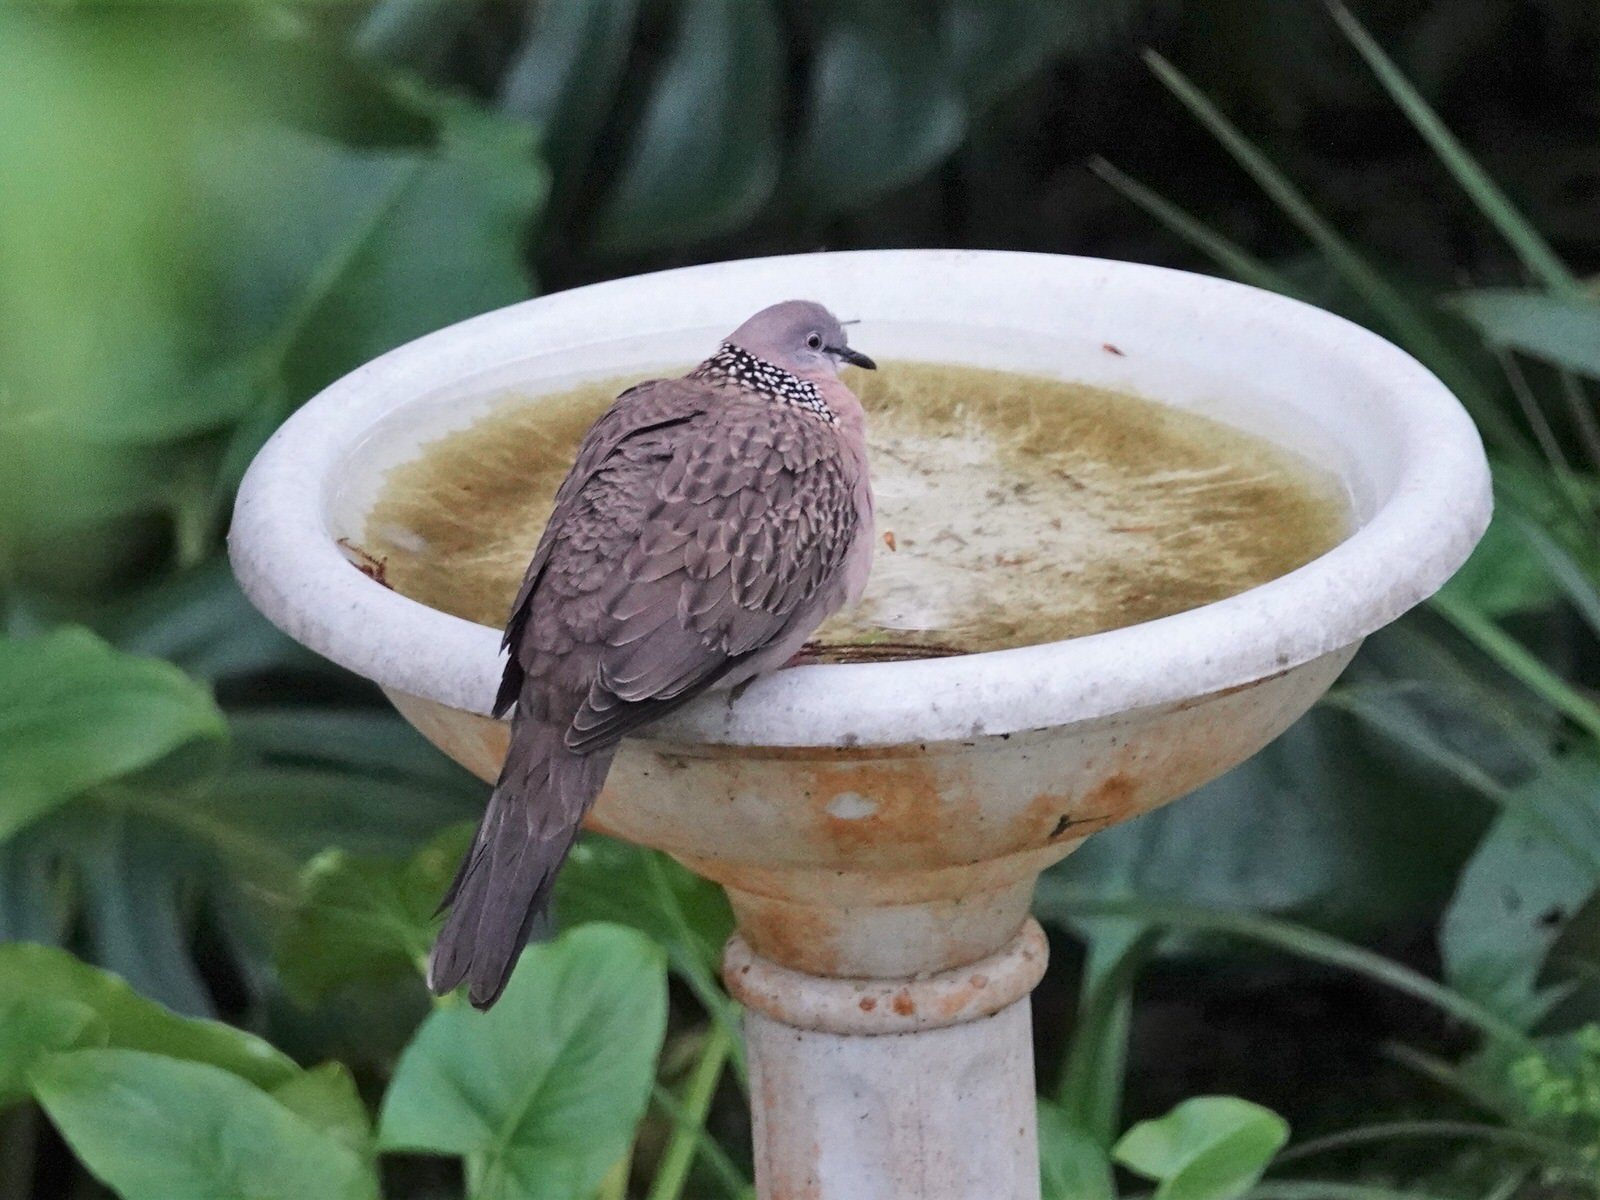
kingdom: Animalia
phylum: Chordata
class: Aves
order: Columbiformes
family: Columbidae
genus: Spilopelia
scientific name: Spilopelia chinensis
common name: Spotted dove
